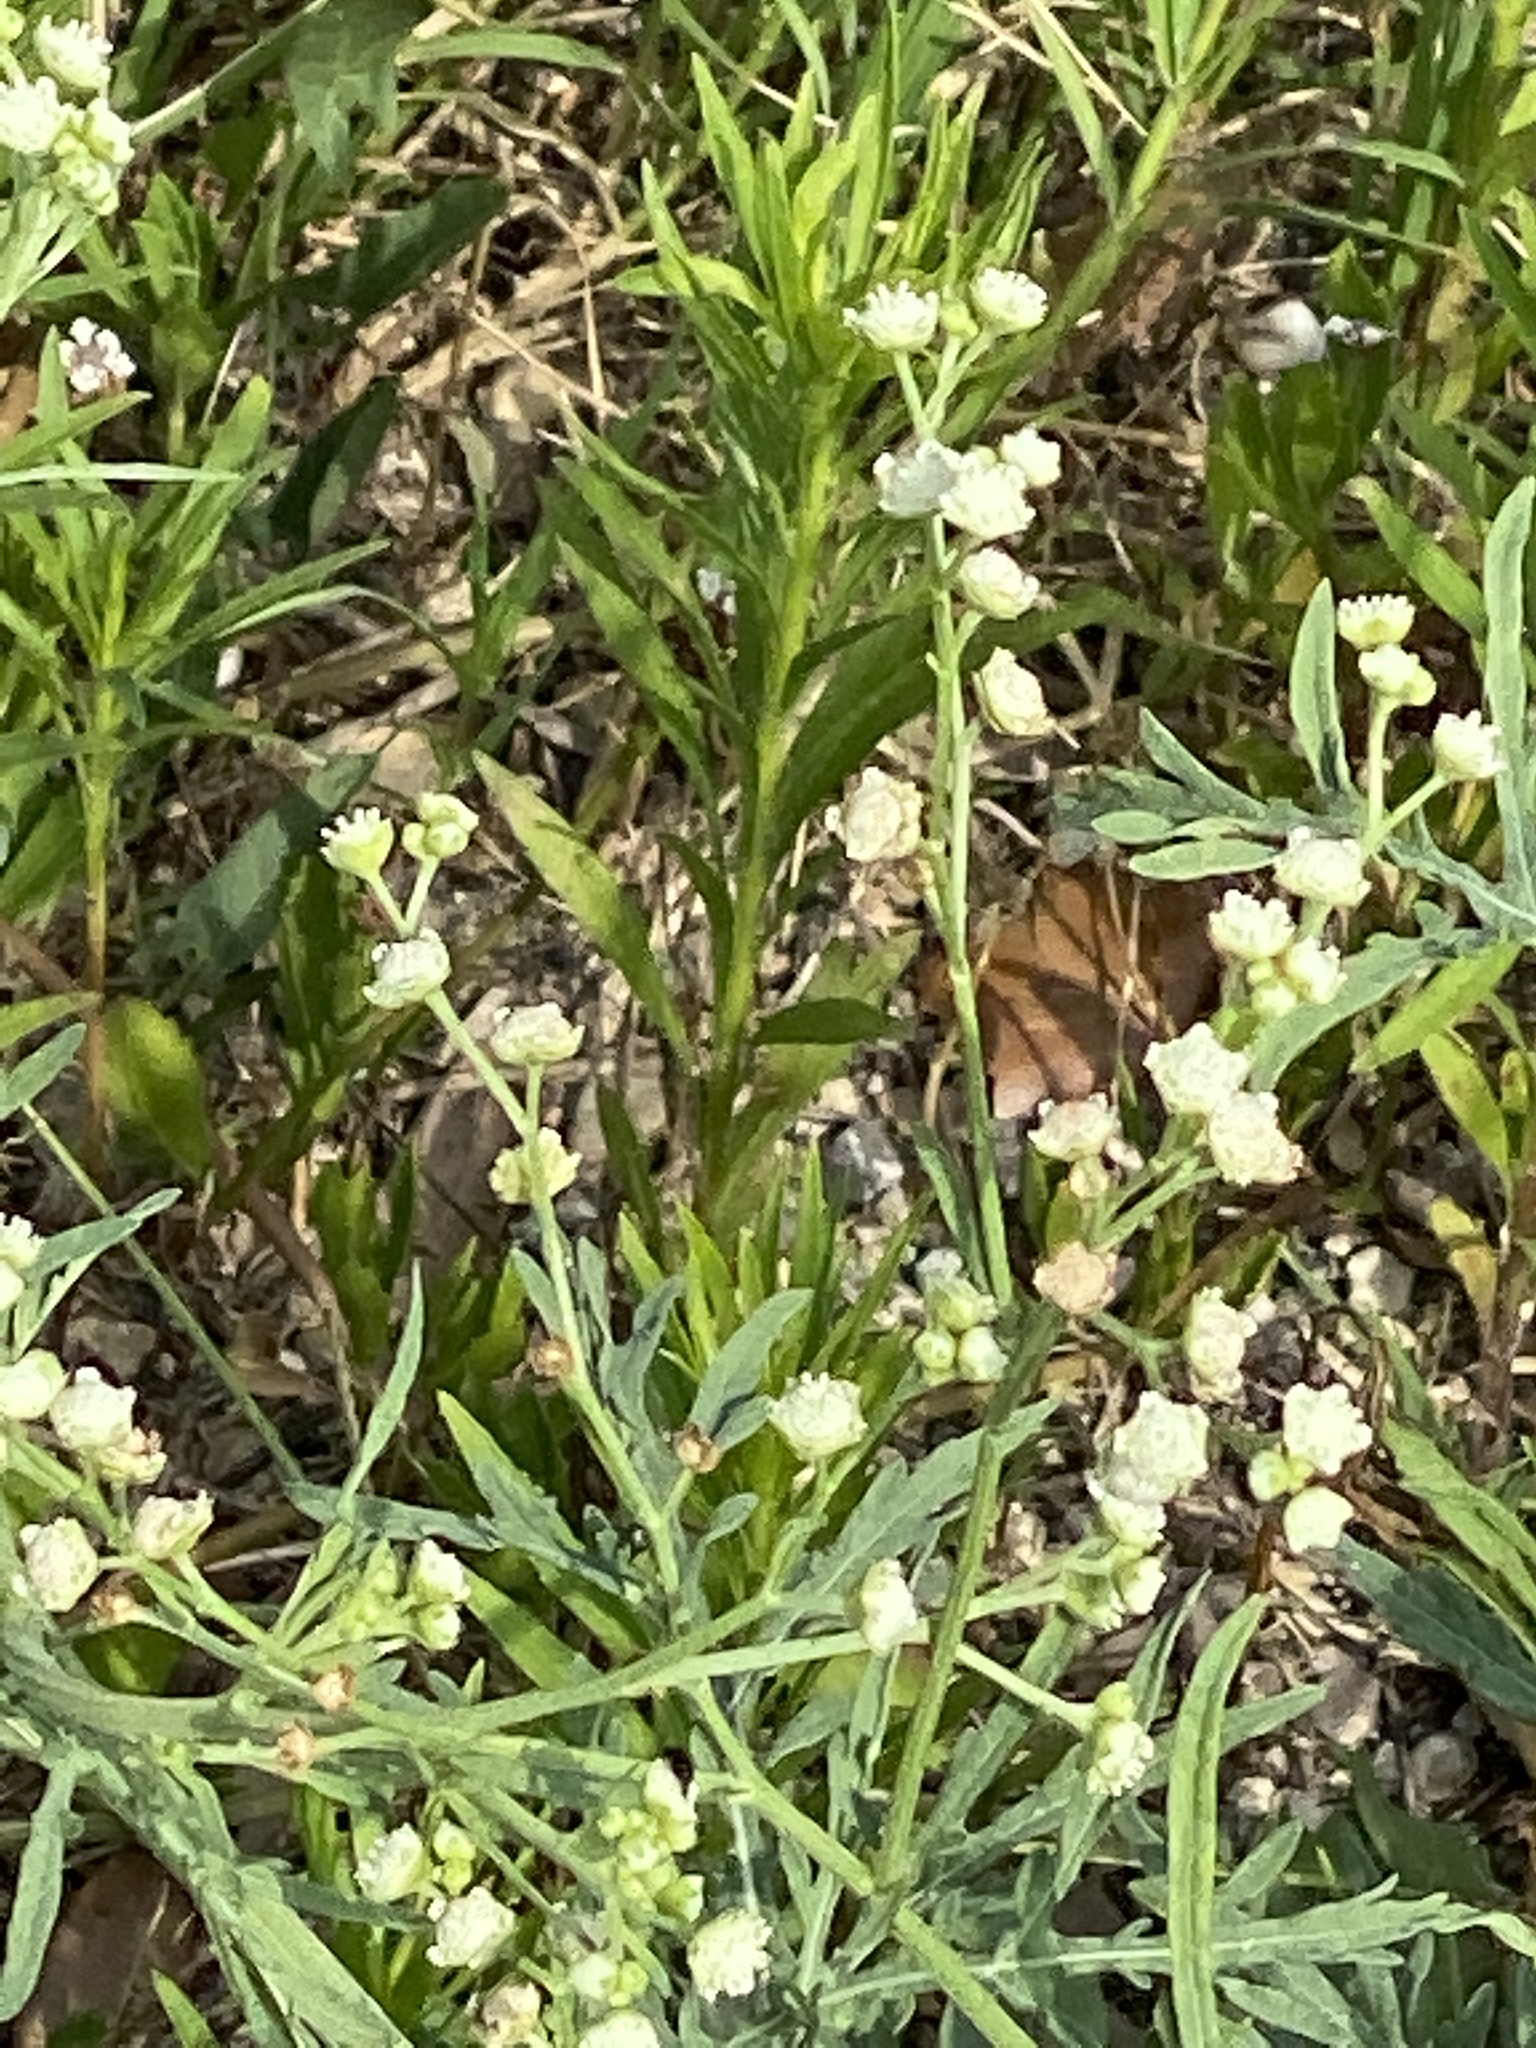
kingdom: Plantae
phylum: Tracheophyta
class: Magnoliopsida
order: Asterales
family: Asteraceae
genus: Parthenium
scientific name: Parthenium hysterophorus
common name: Santa maria feverfew
